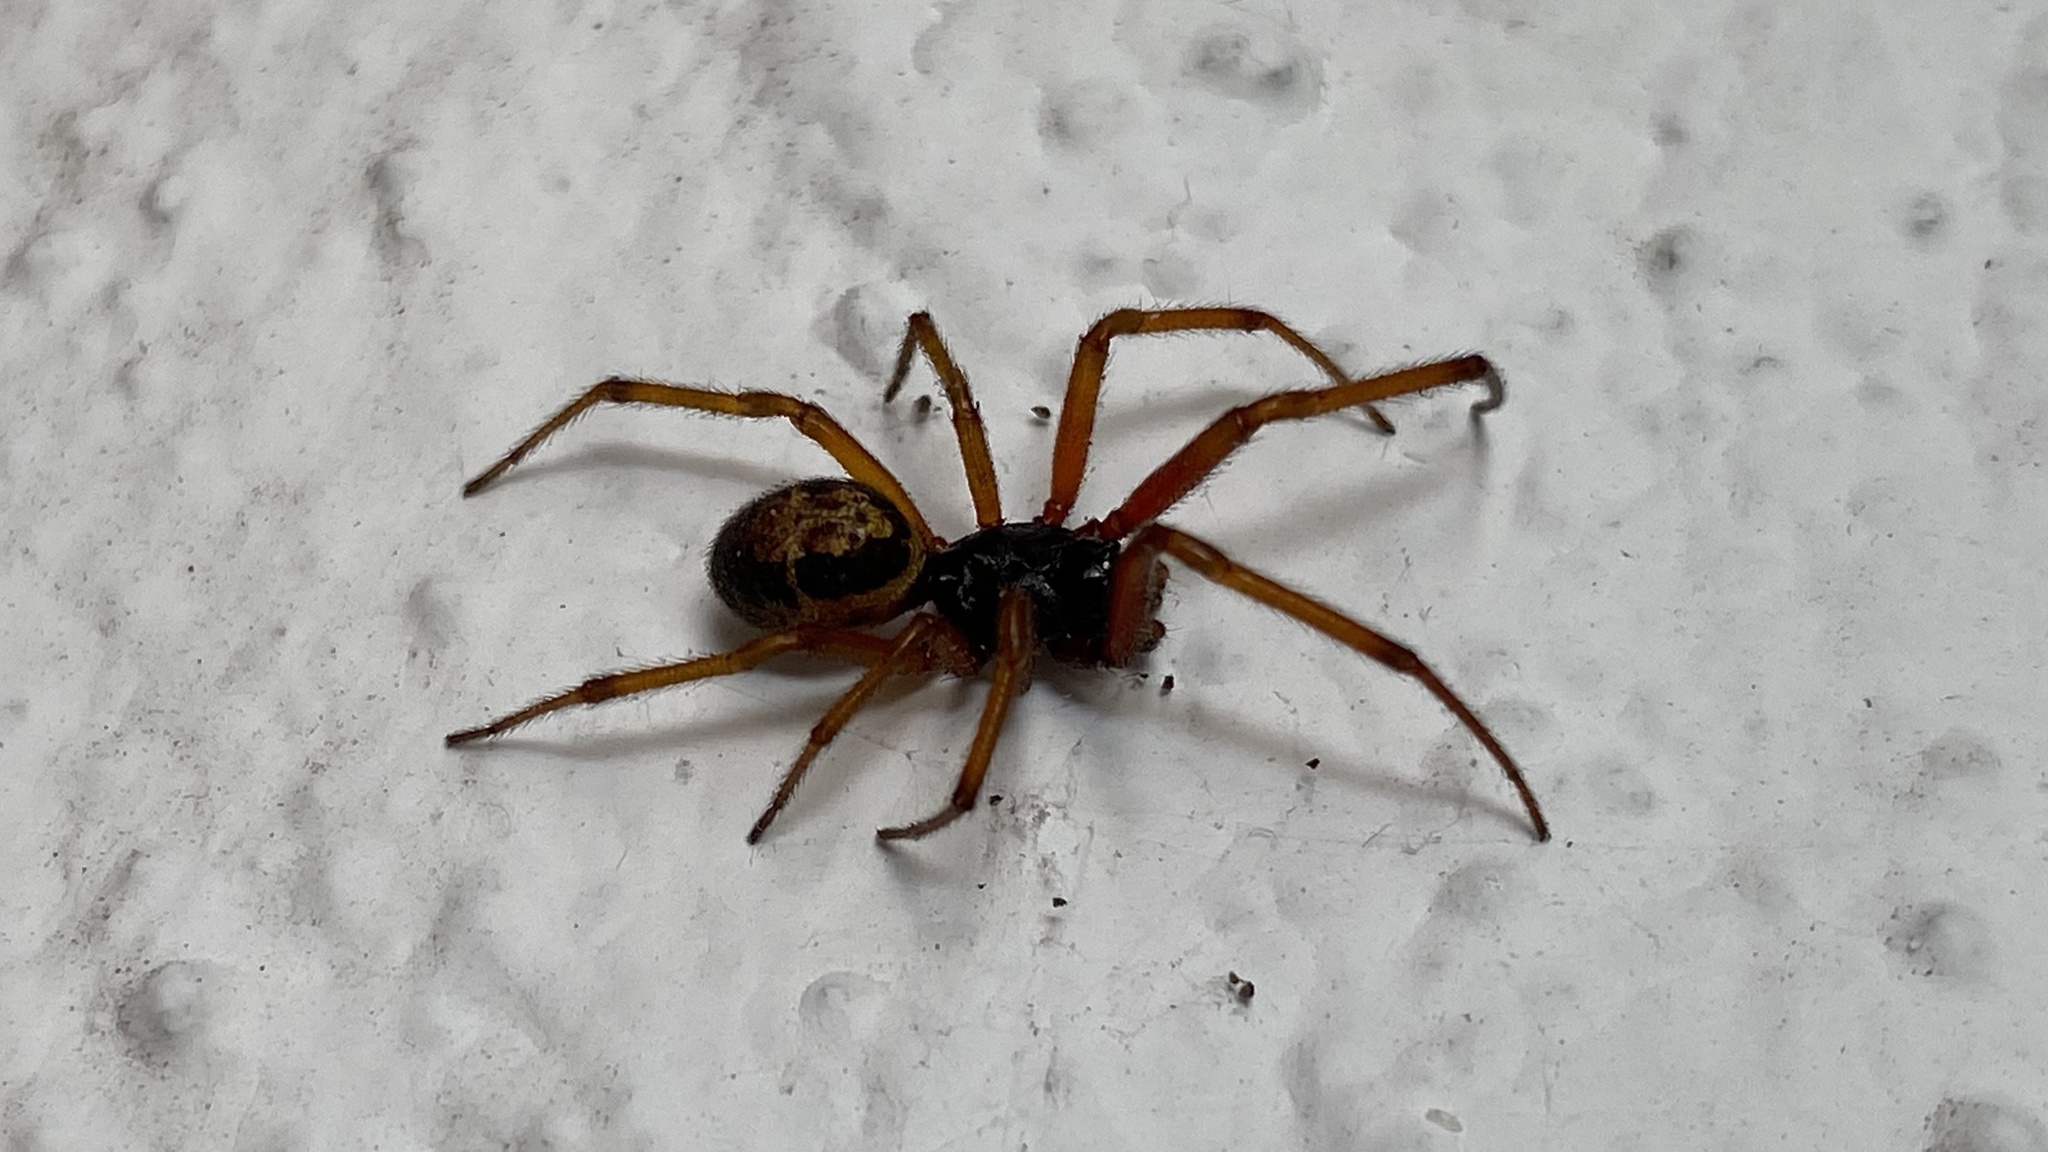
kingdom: Animalia
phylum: Arthropoda
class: Arachnida
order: Araneae
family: Theridiidae
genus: Steatoda
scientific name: Steatoda nobilis
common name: Cobweb weaver
